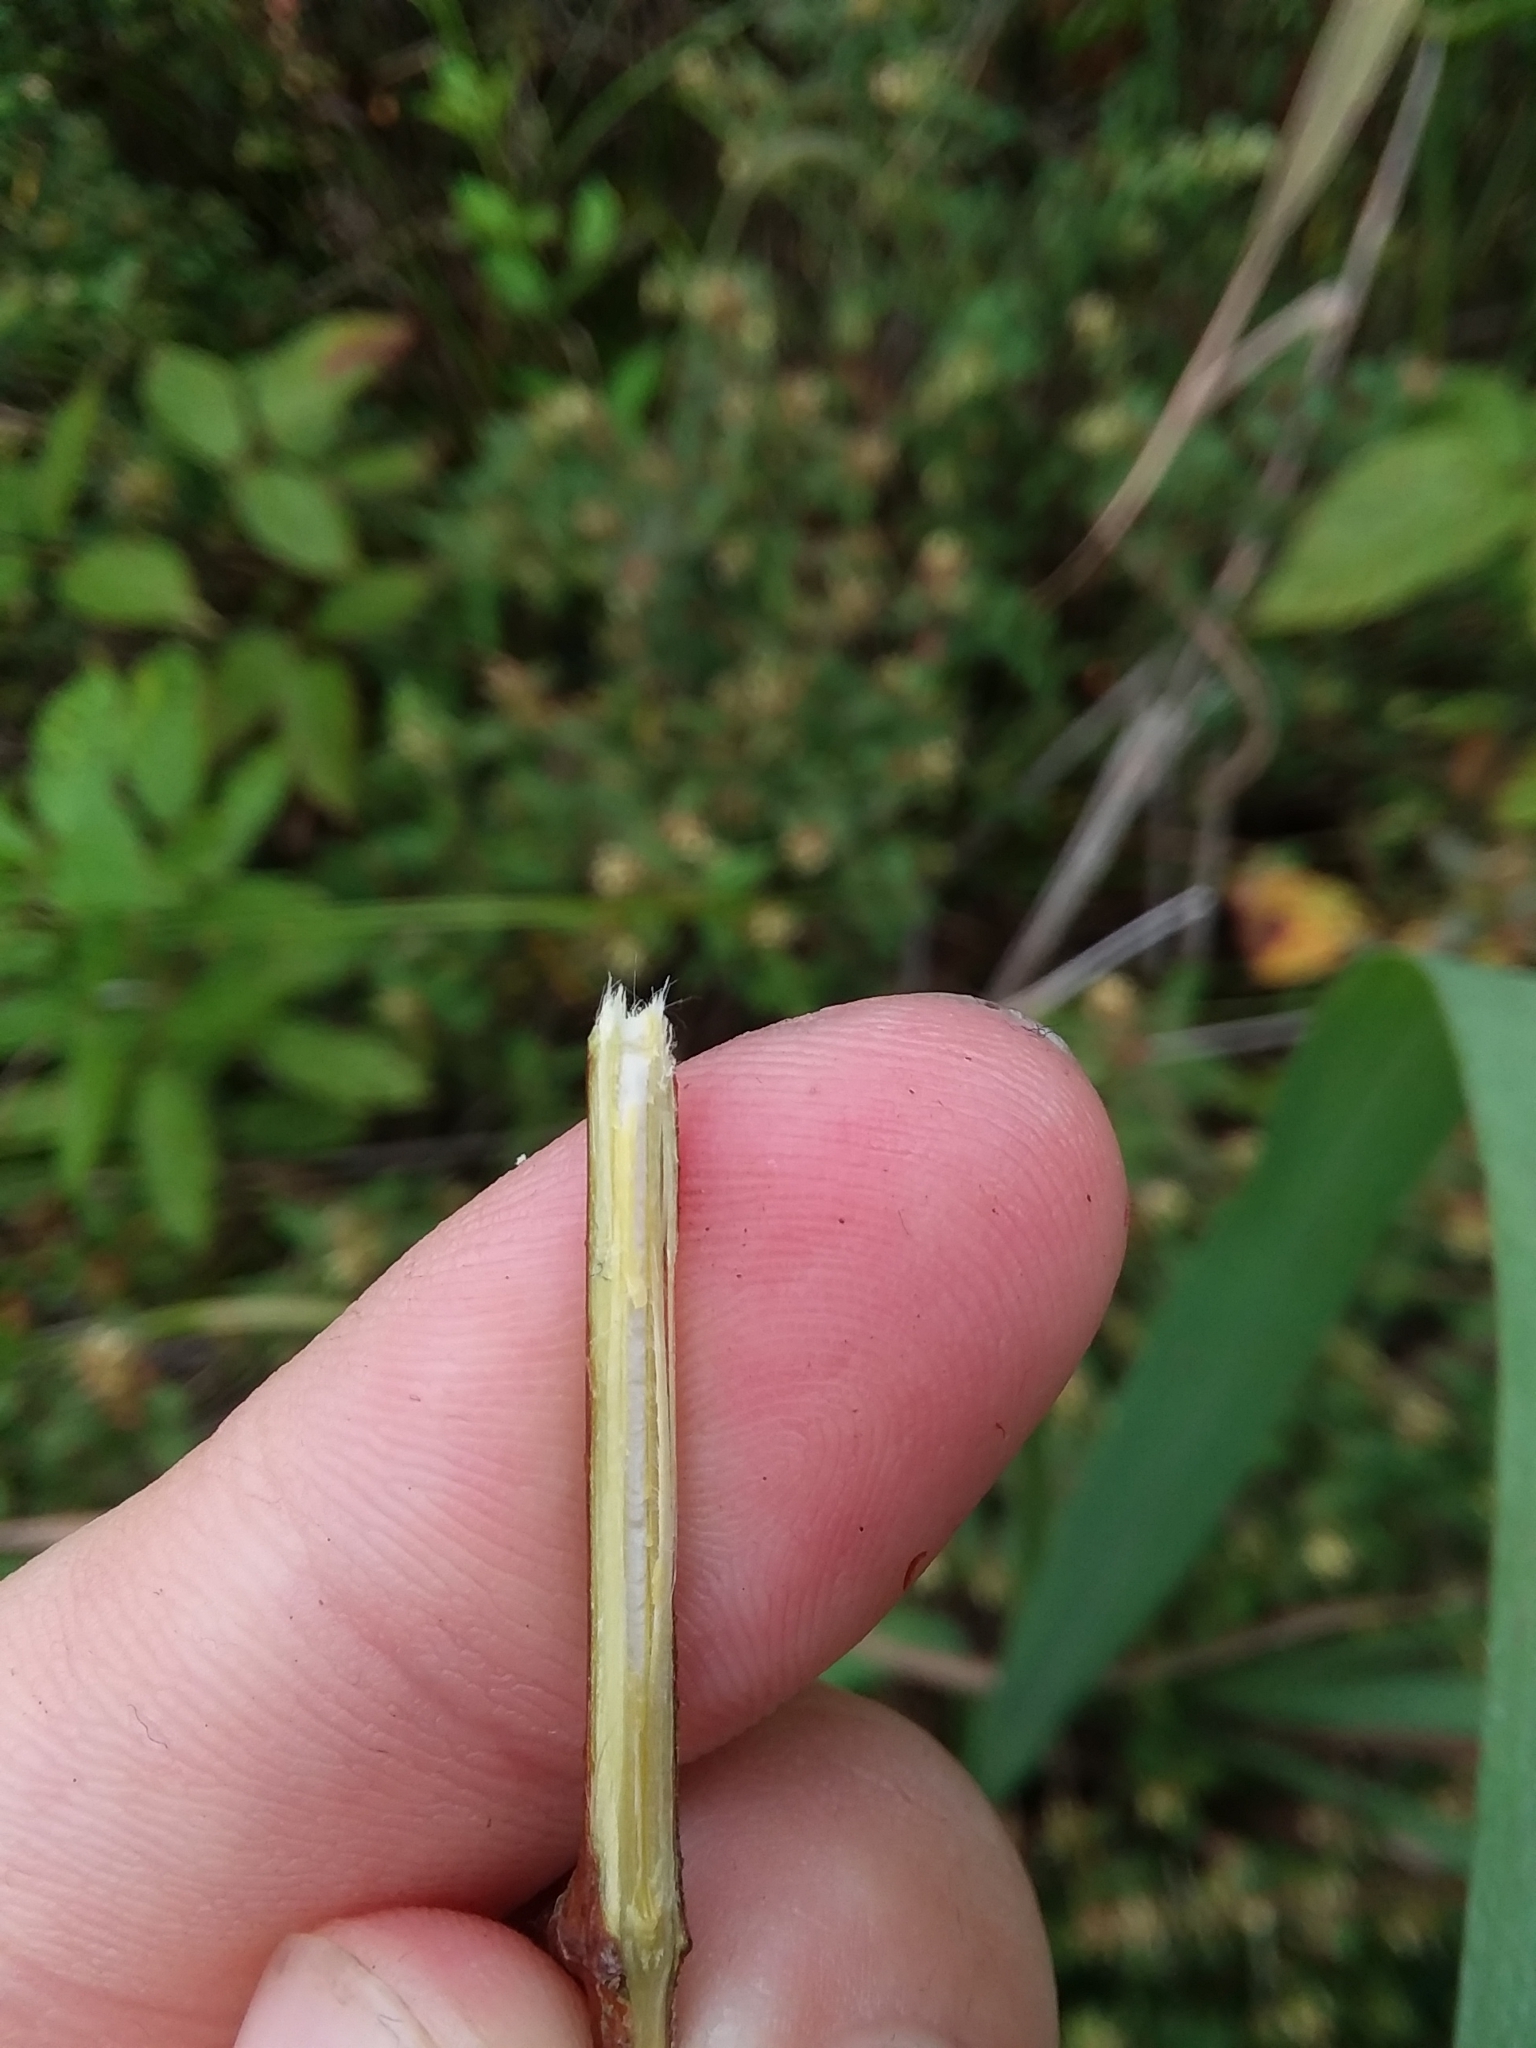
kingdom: Plantae
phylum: Tracheophyta
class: Magnoliopsida
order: Cornales
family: Cornaceae
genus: Cornus
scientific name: Cornus foemina
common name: Swamp dogwood
